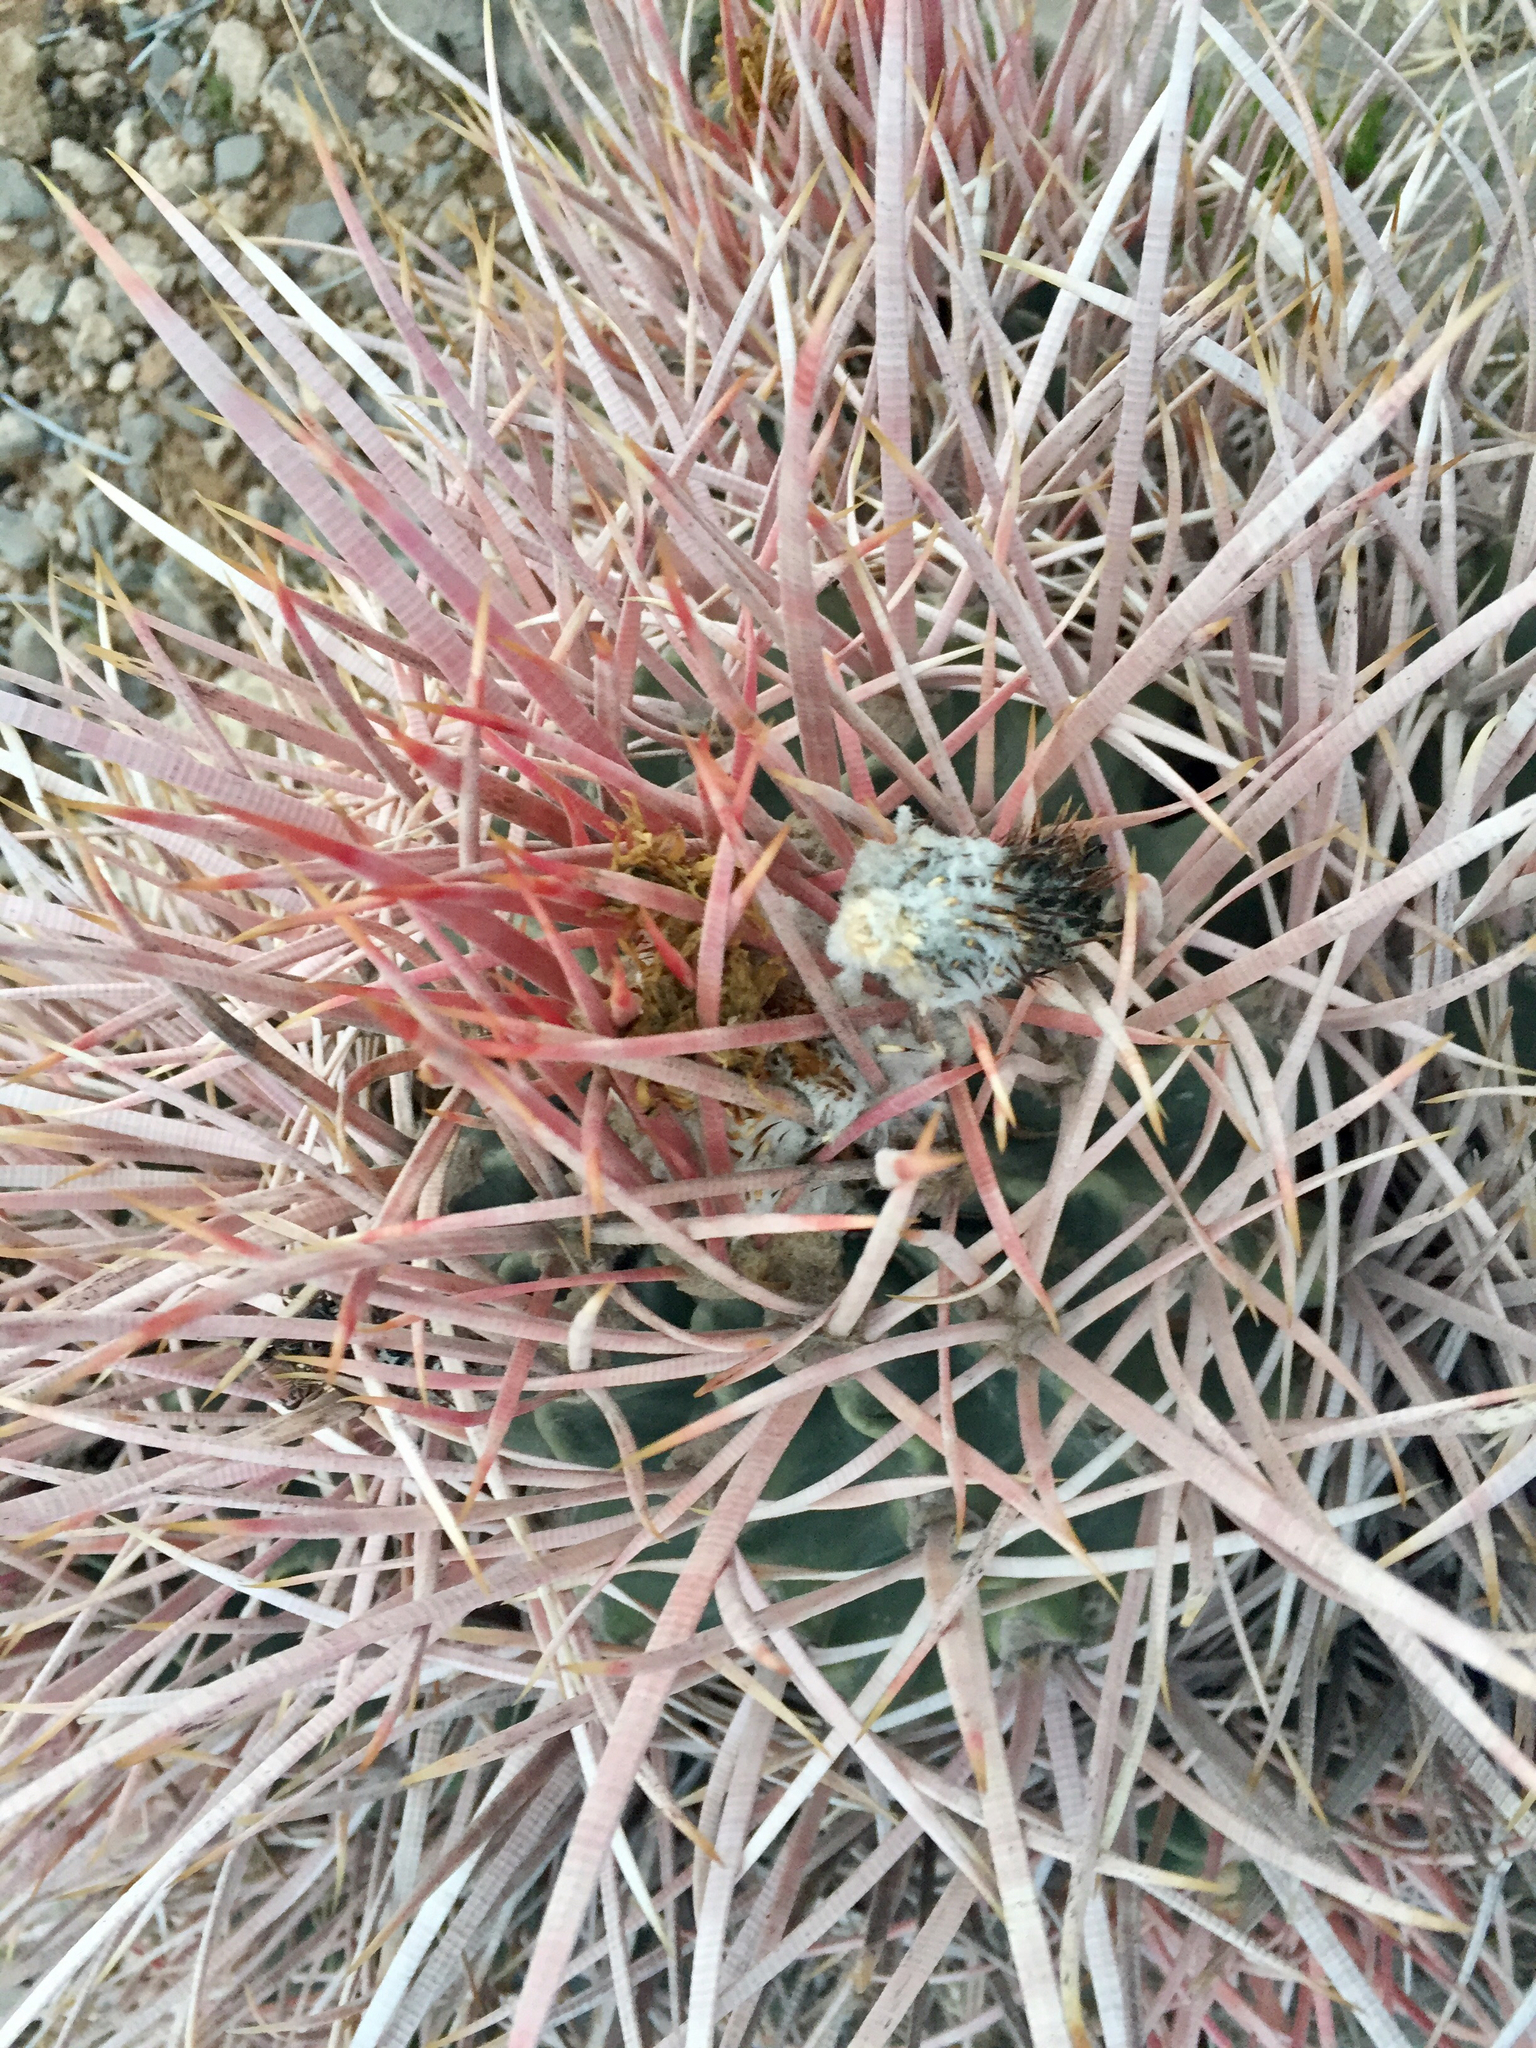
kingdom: Plantae
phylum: Tracheophyta
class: Magnoliopsida
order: Caryophyllales
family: Cactaceae
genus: Echinocactus
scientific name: Echinocactus polycephalus
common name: Cottontop cactus
